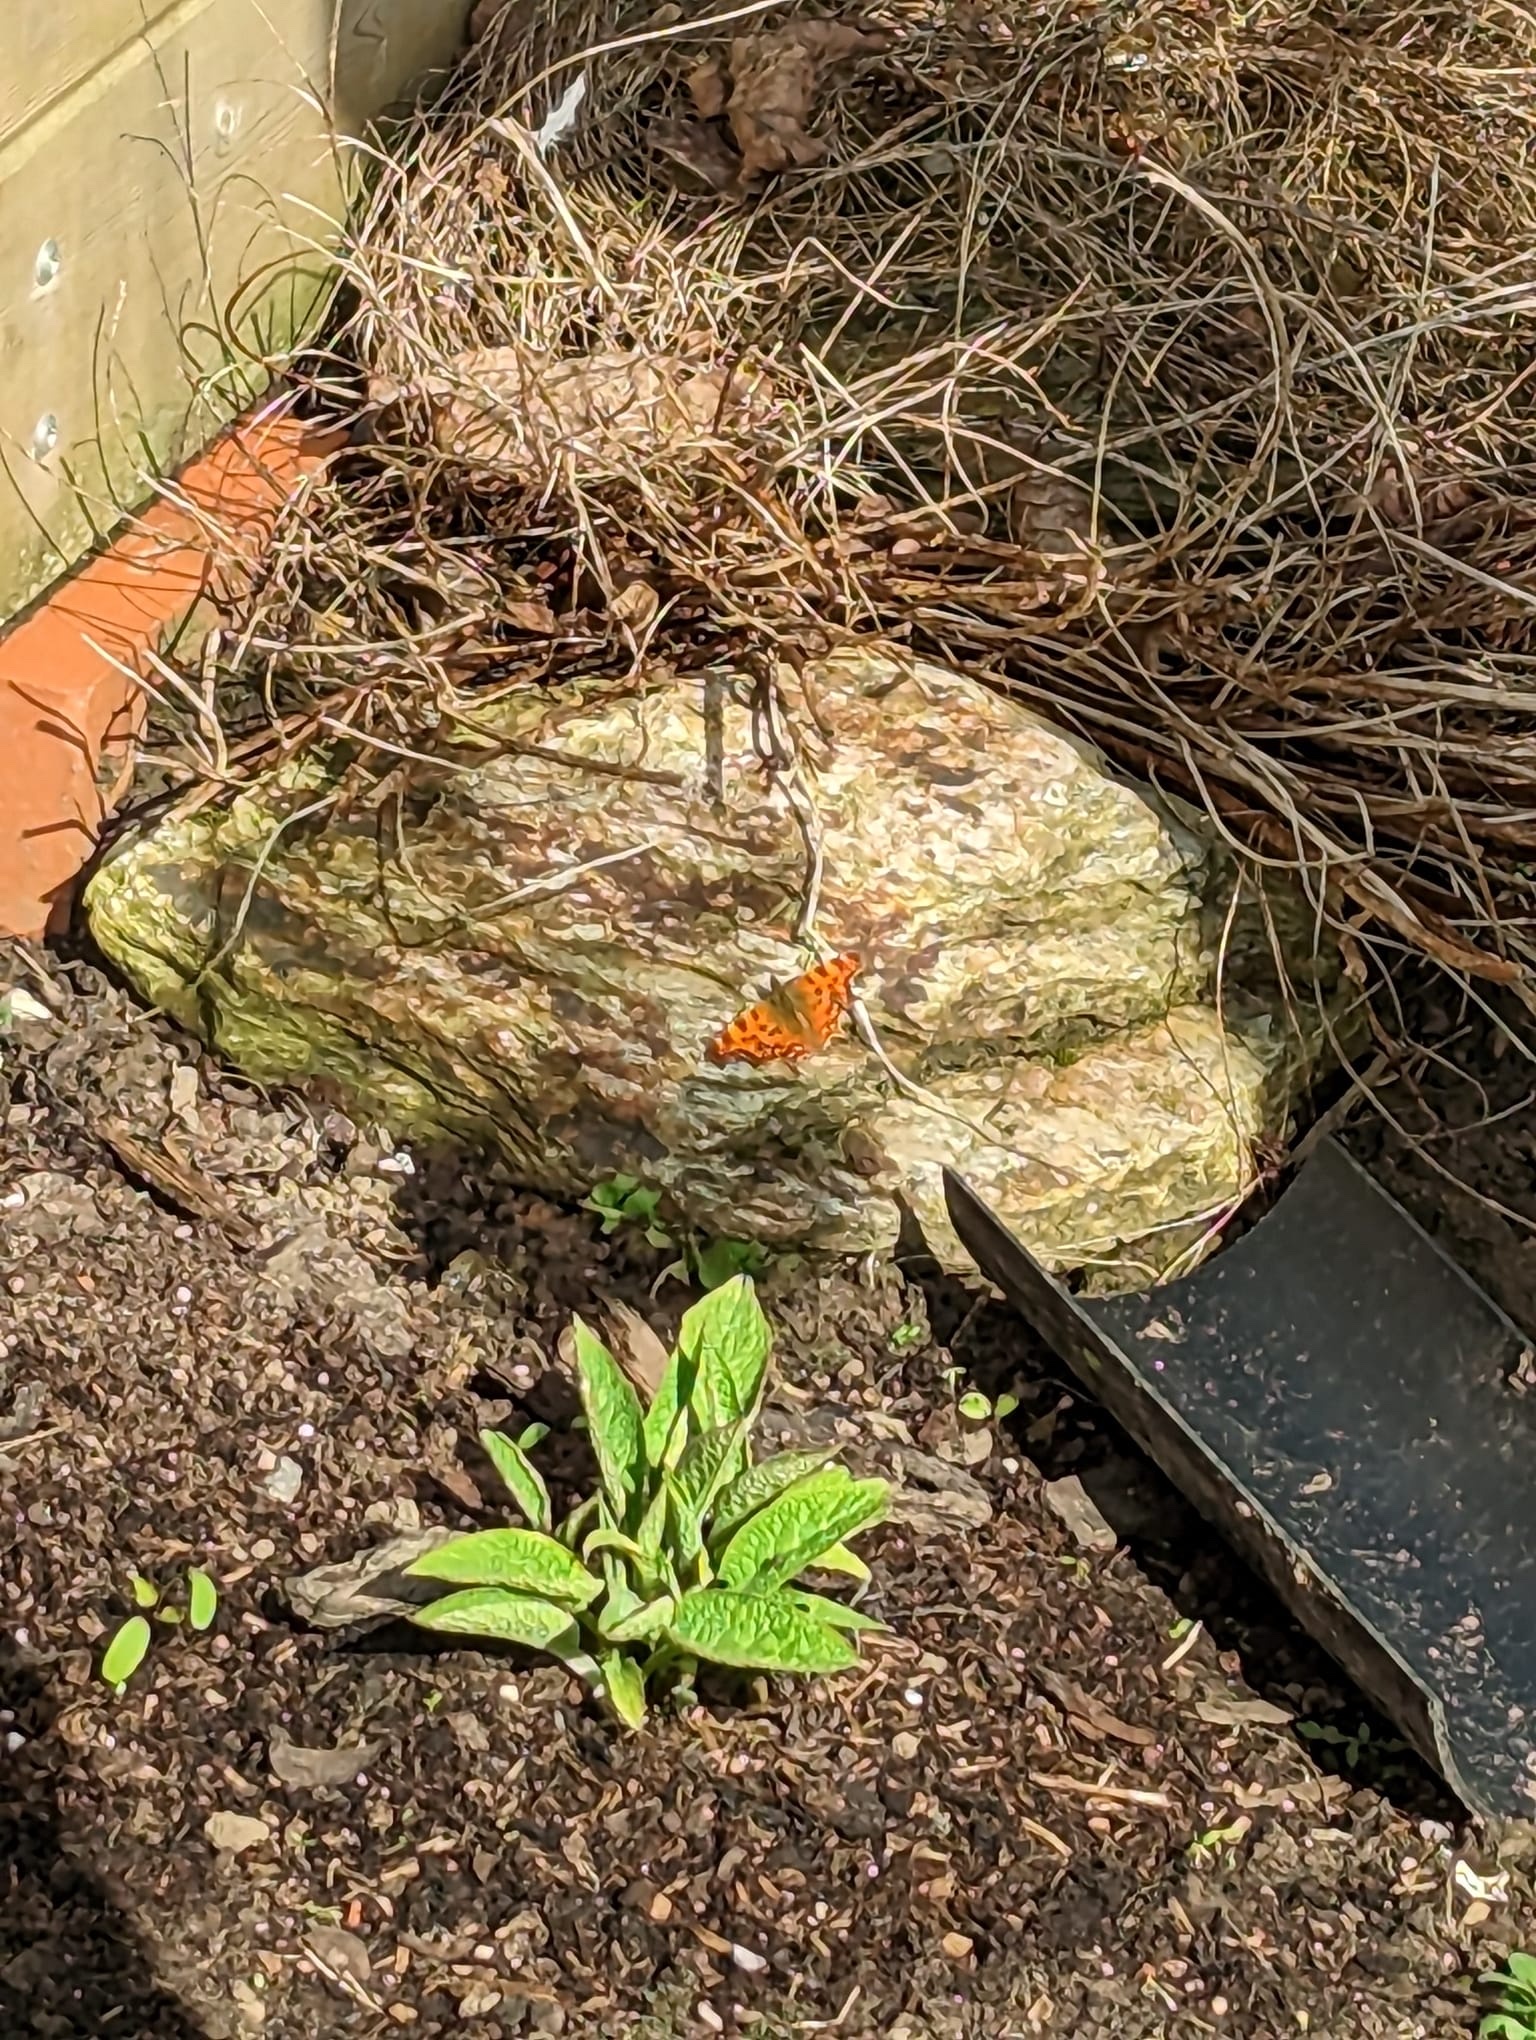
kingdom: Animalia
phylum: Arthropoda
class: Insecta
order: Lepidoptera
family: Nymphalidae
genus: Polygonia
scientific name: Polygonia c-album
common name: Comma
